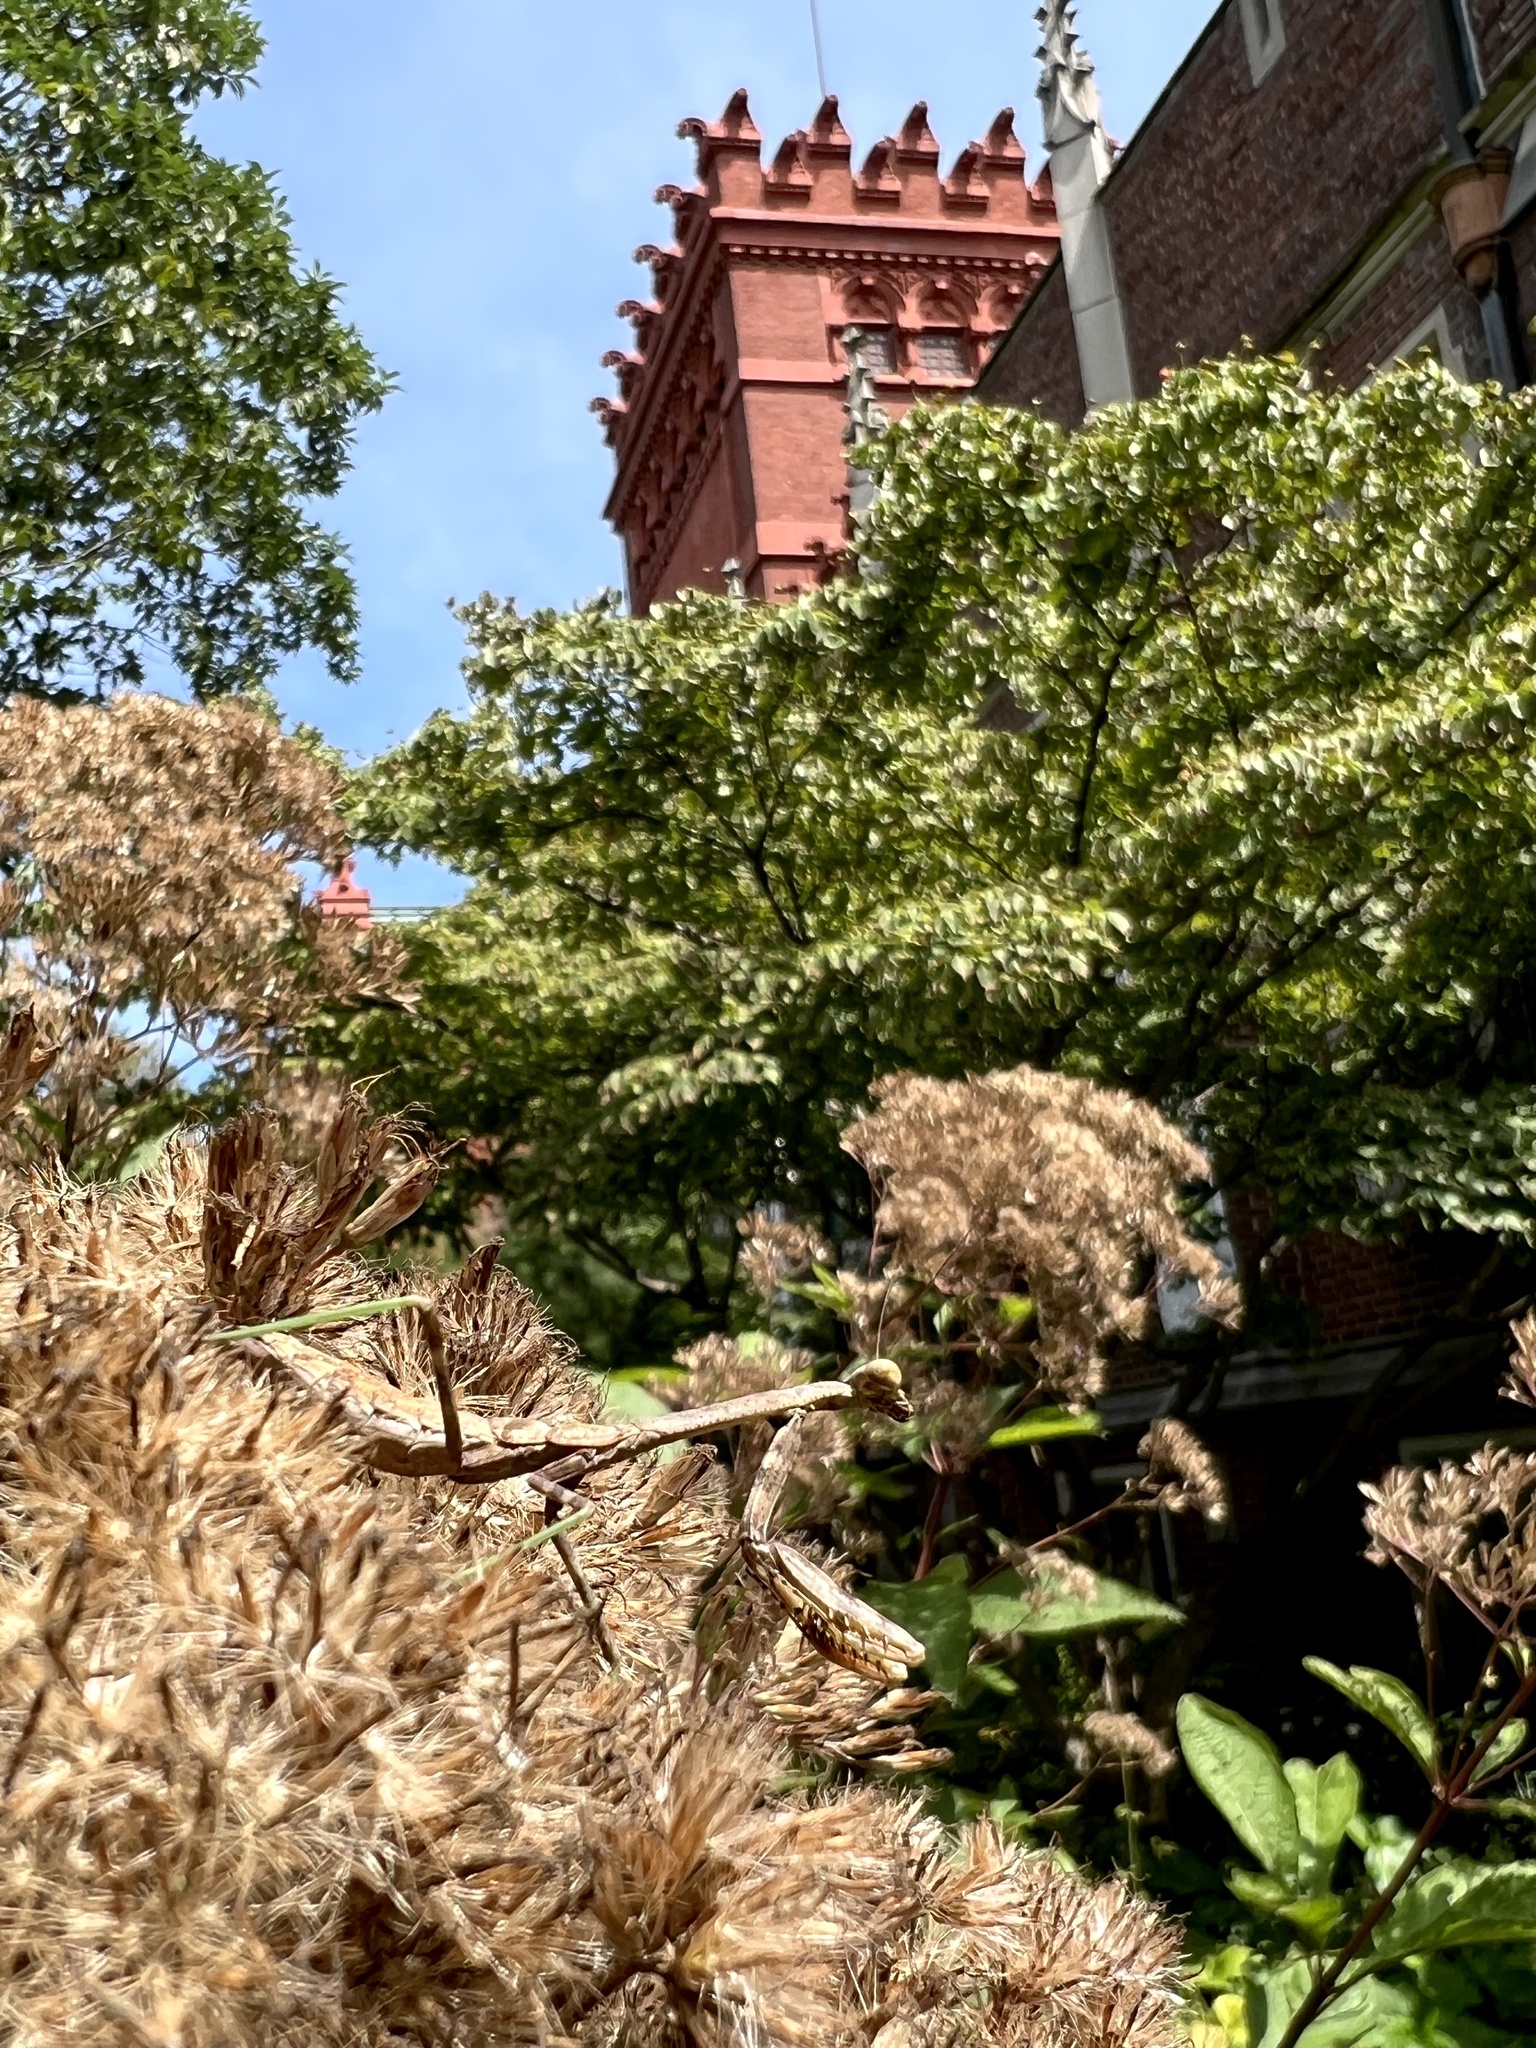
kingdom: Animalia
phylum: Arthropoda
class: Insecta
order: Mantodea
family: Mantidae
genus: Stagmomantis
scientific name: Stagmomantis carolina
